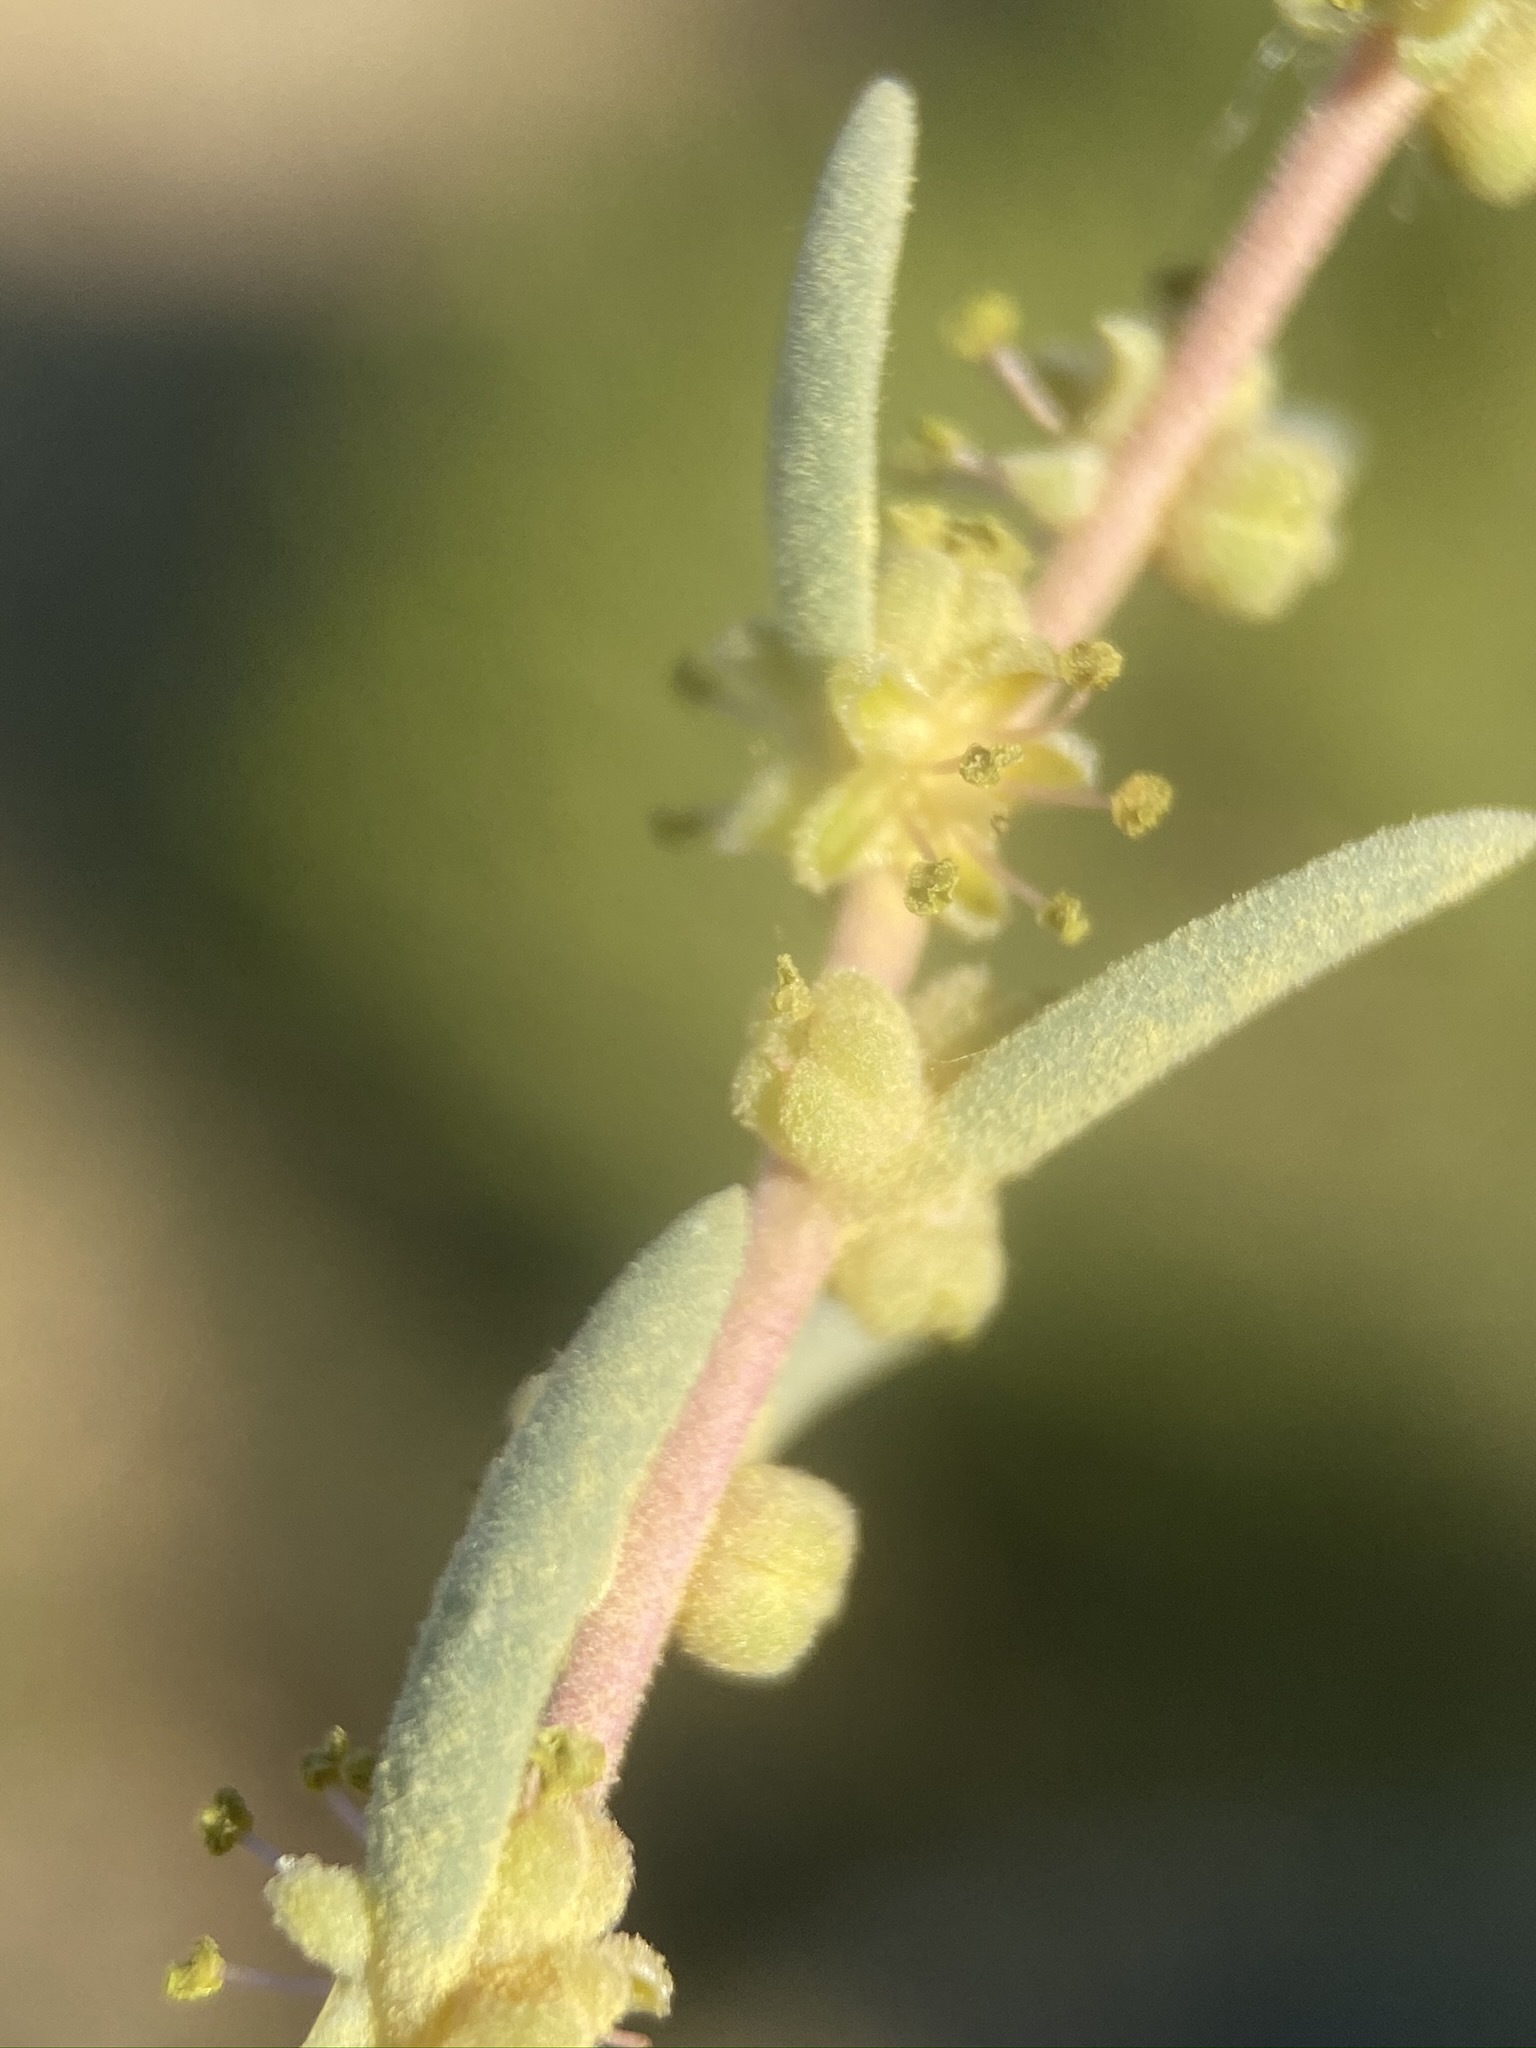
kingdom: Plantae
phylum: Tracheophyta
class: Magnoliopsida
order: Caryophyllales
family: Amaranthaceae
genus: Suaeda
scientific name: Suaeda nigra
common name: Bush seepweed
